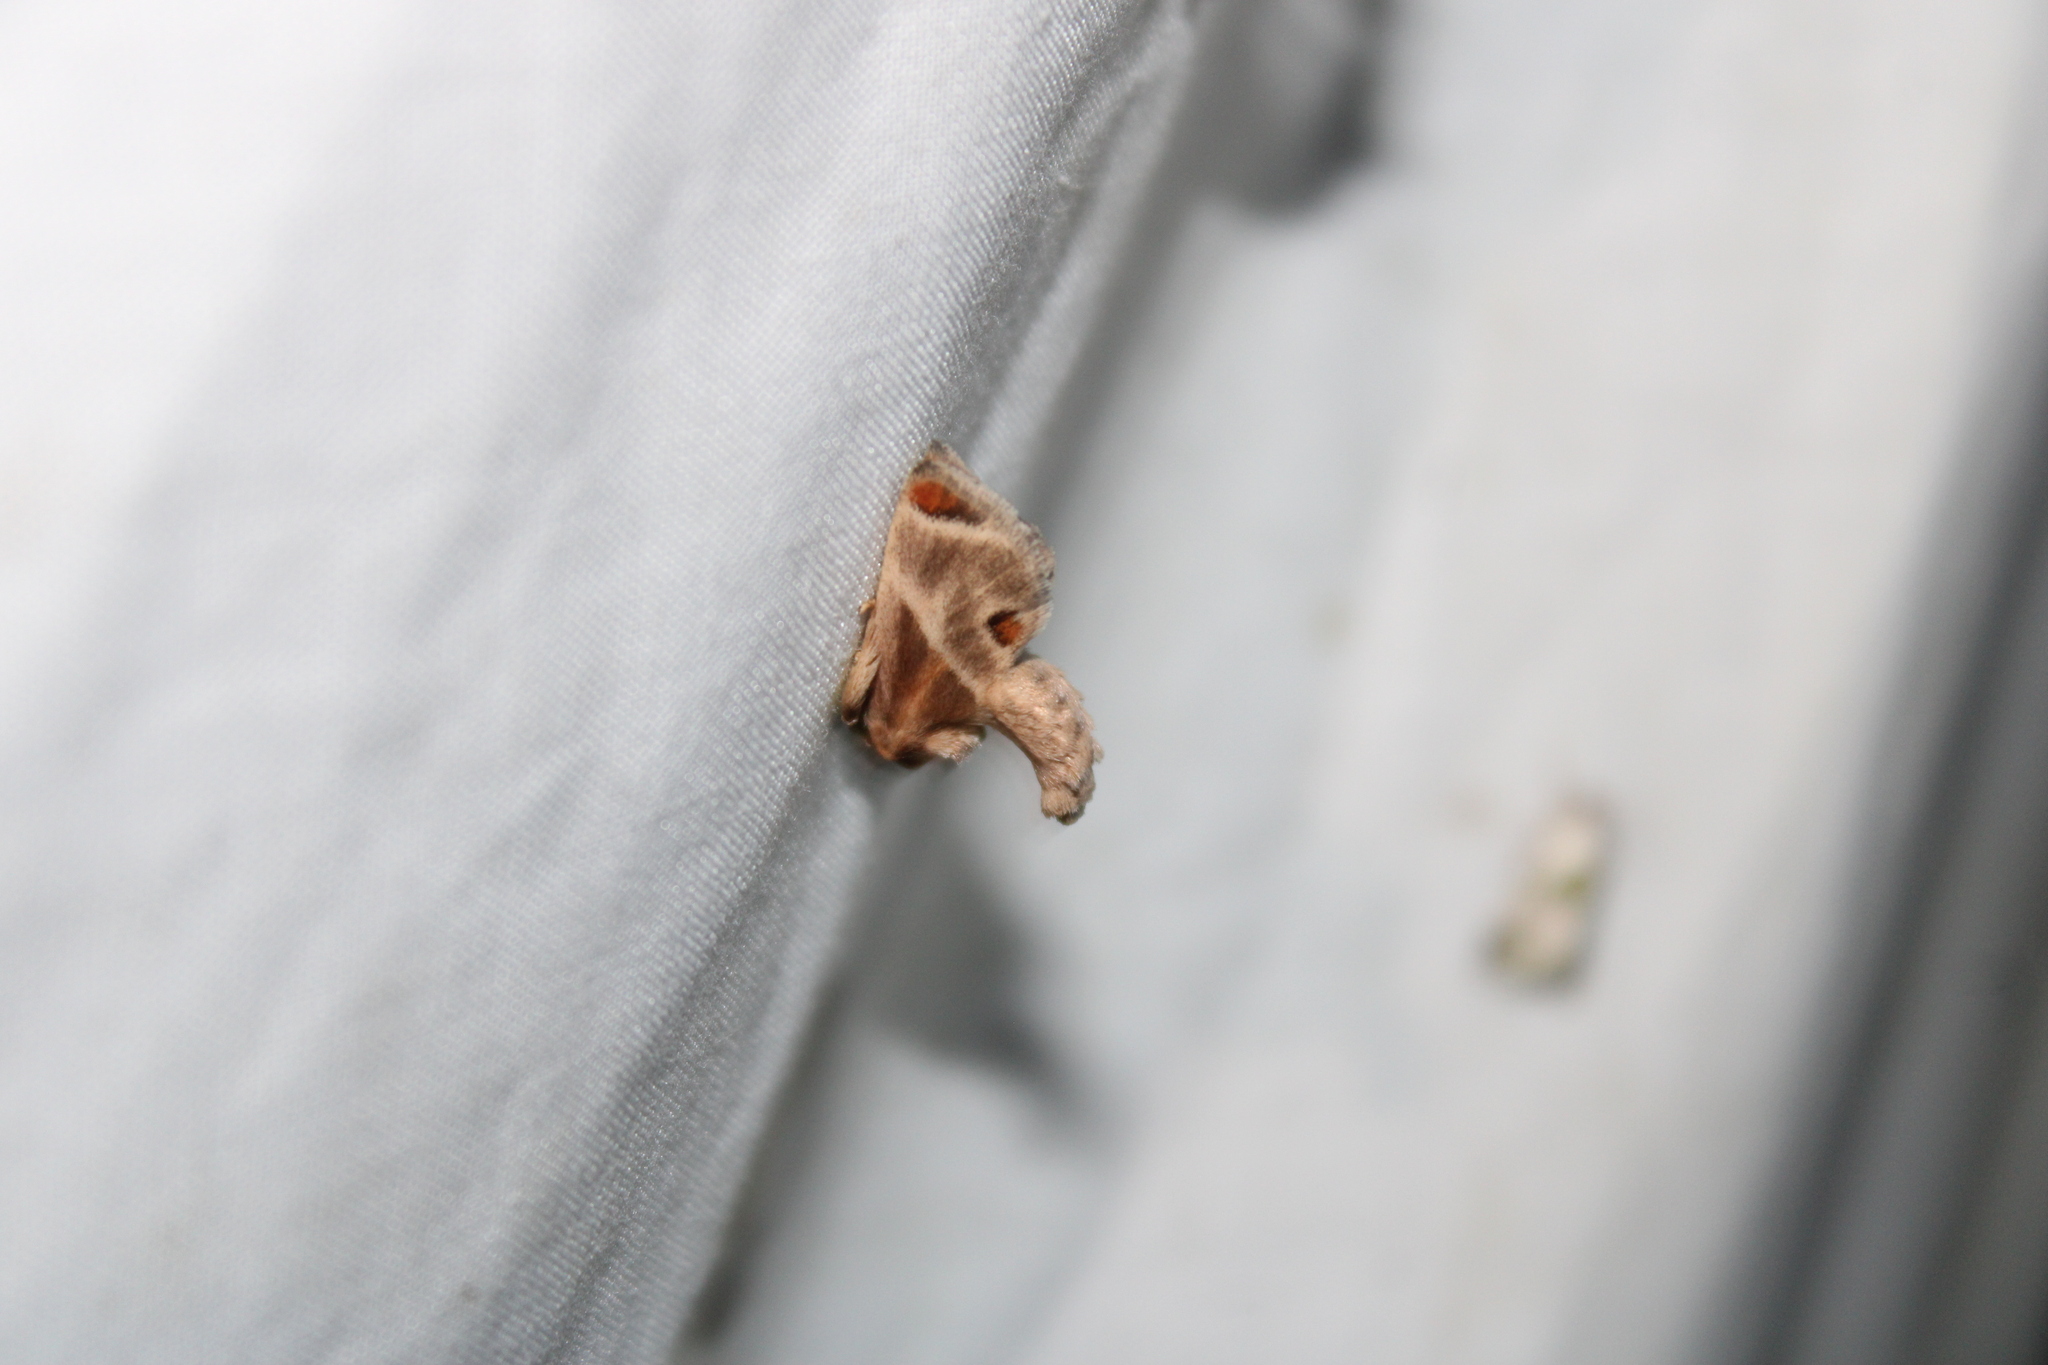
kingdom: Animalia
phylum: Arthropoda
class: Insecta
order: Lepidoptera
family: Limacodidae
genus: Apoda
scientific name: Apoda biguttata
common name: Shagreened slug moth
